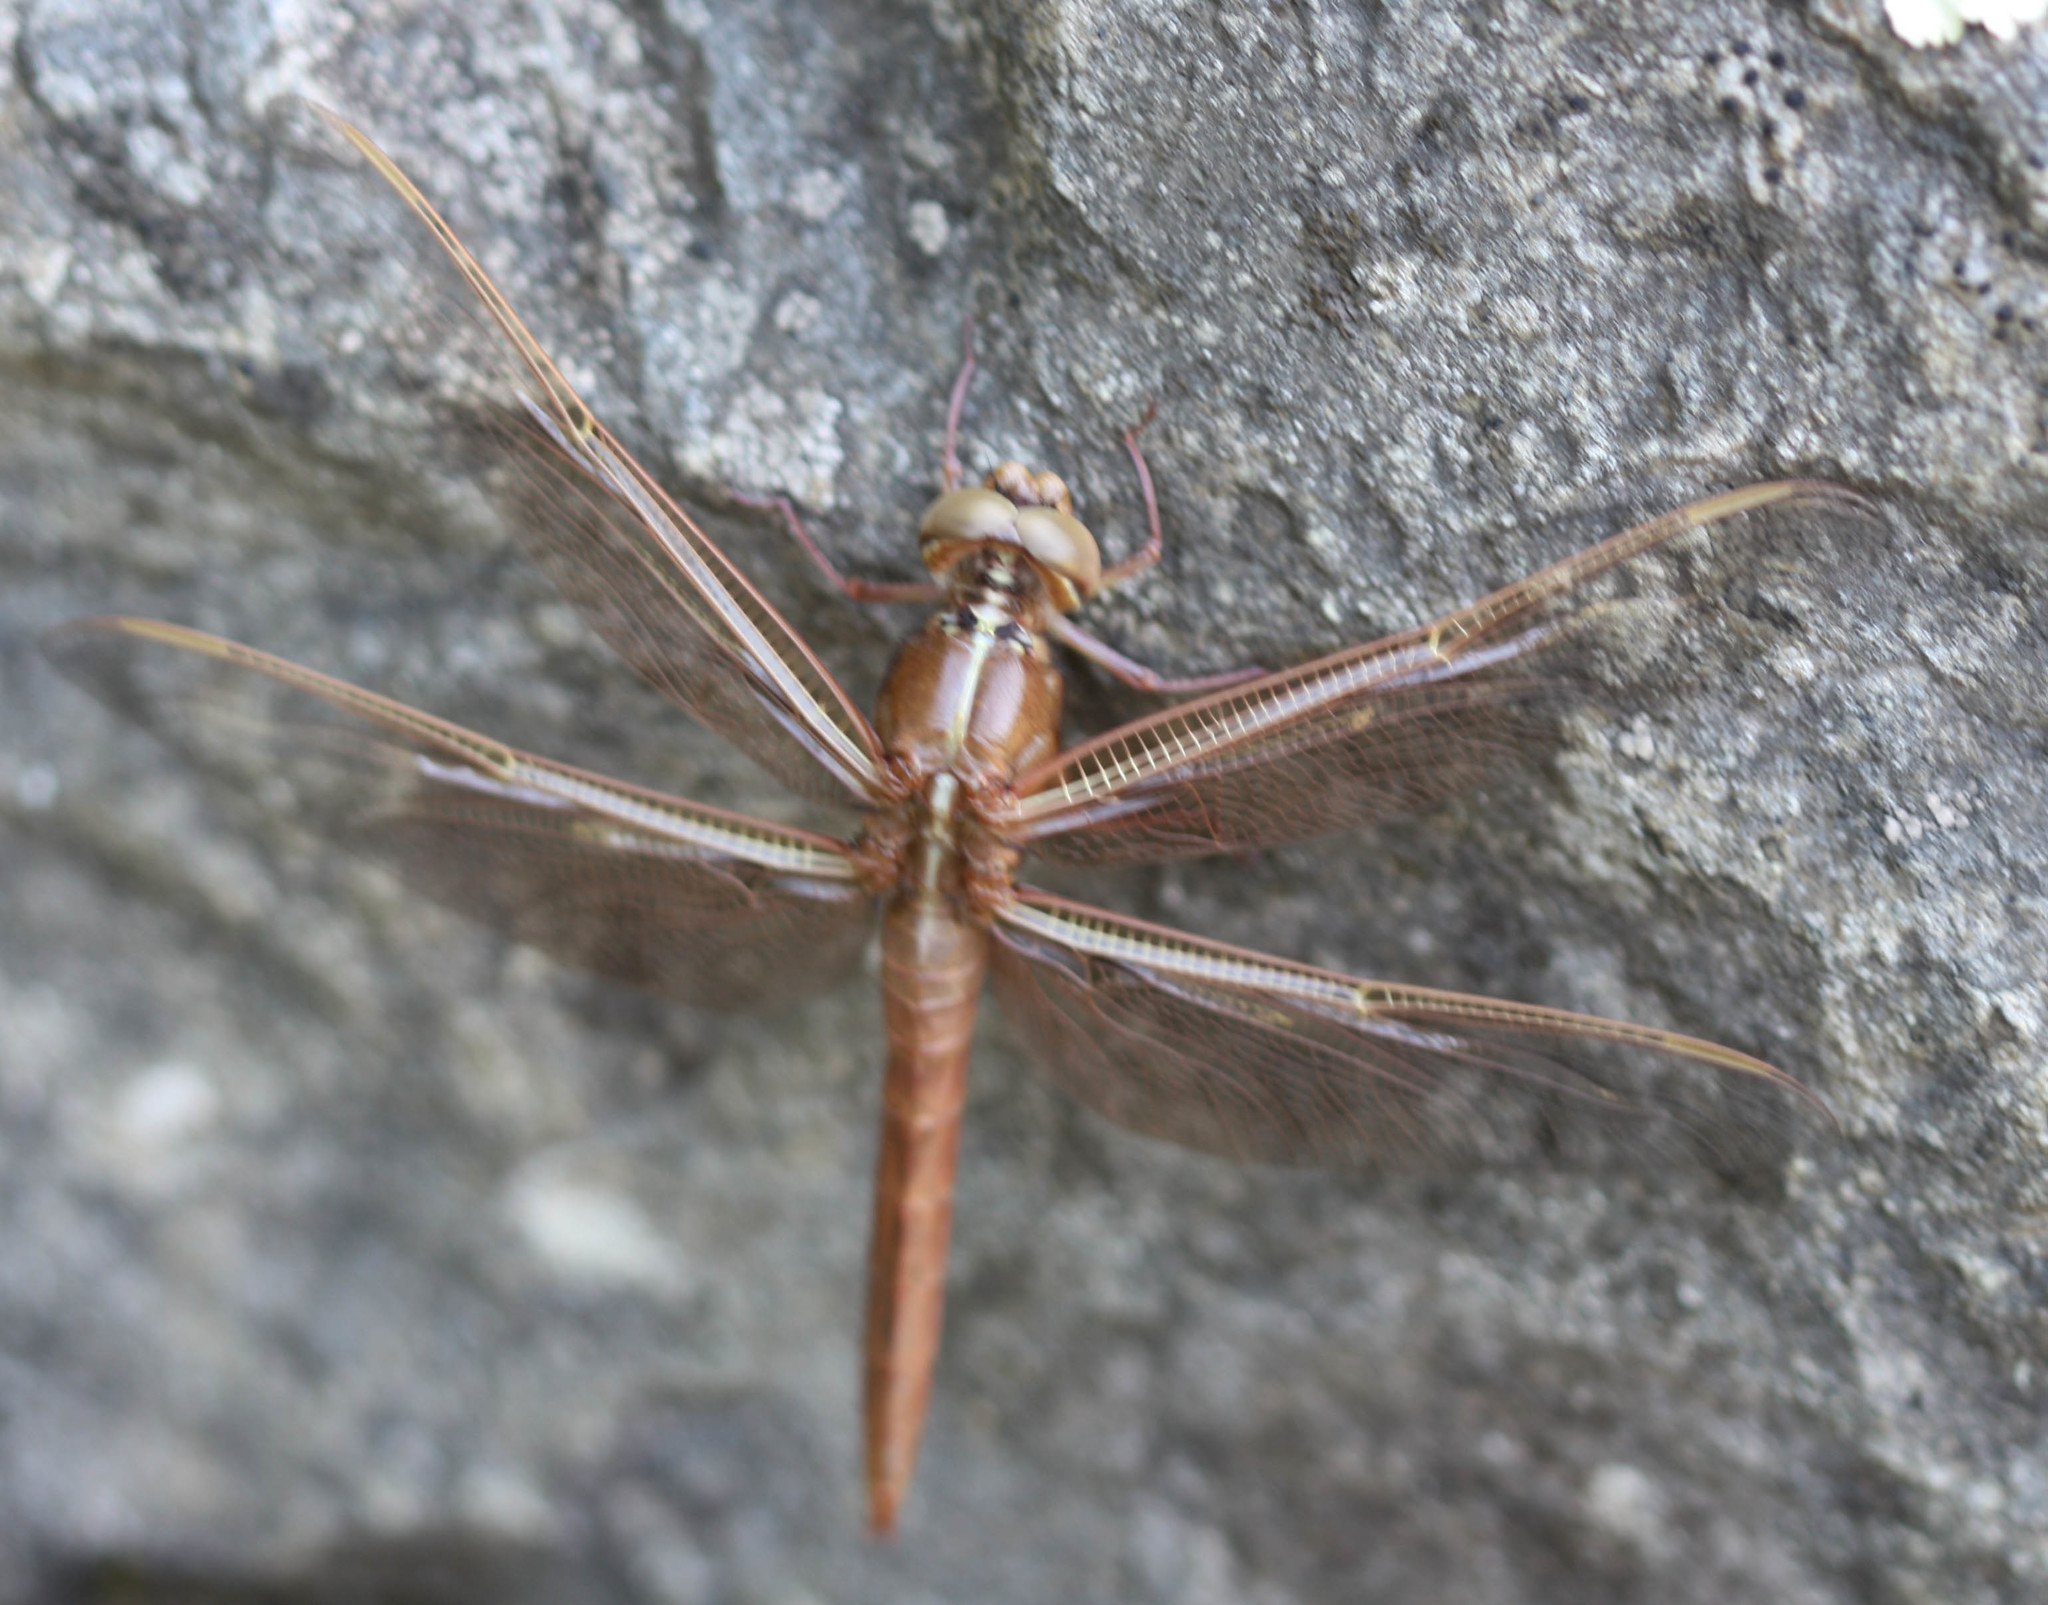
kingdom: Animalia
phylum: Arthropoda
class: Insecta
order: Odonata
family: Libellulidae
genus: Libellula
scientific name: Libellula saturata
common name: Flame skimmer
